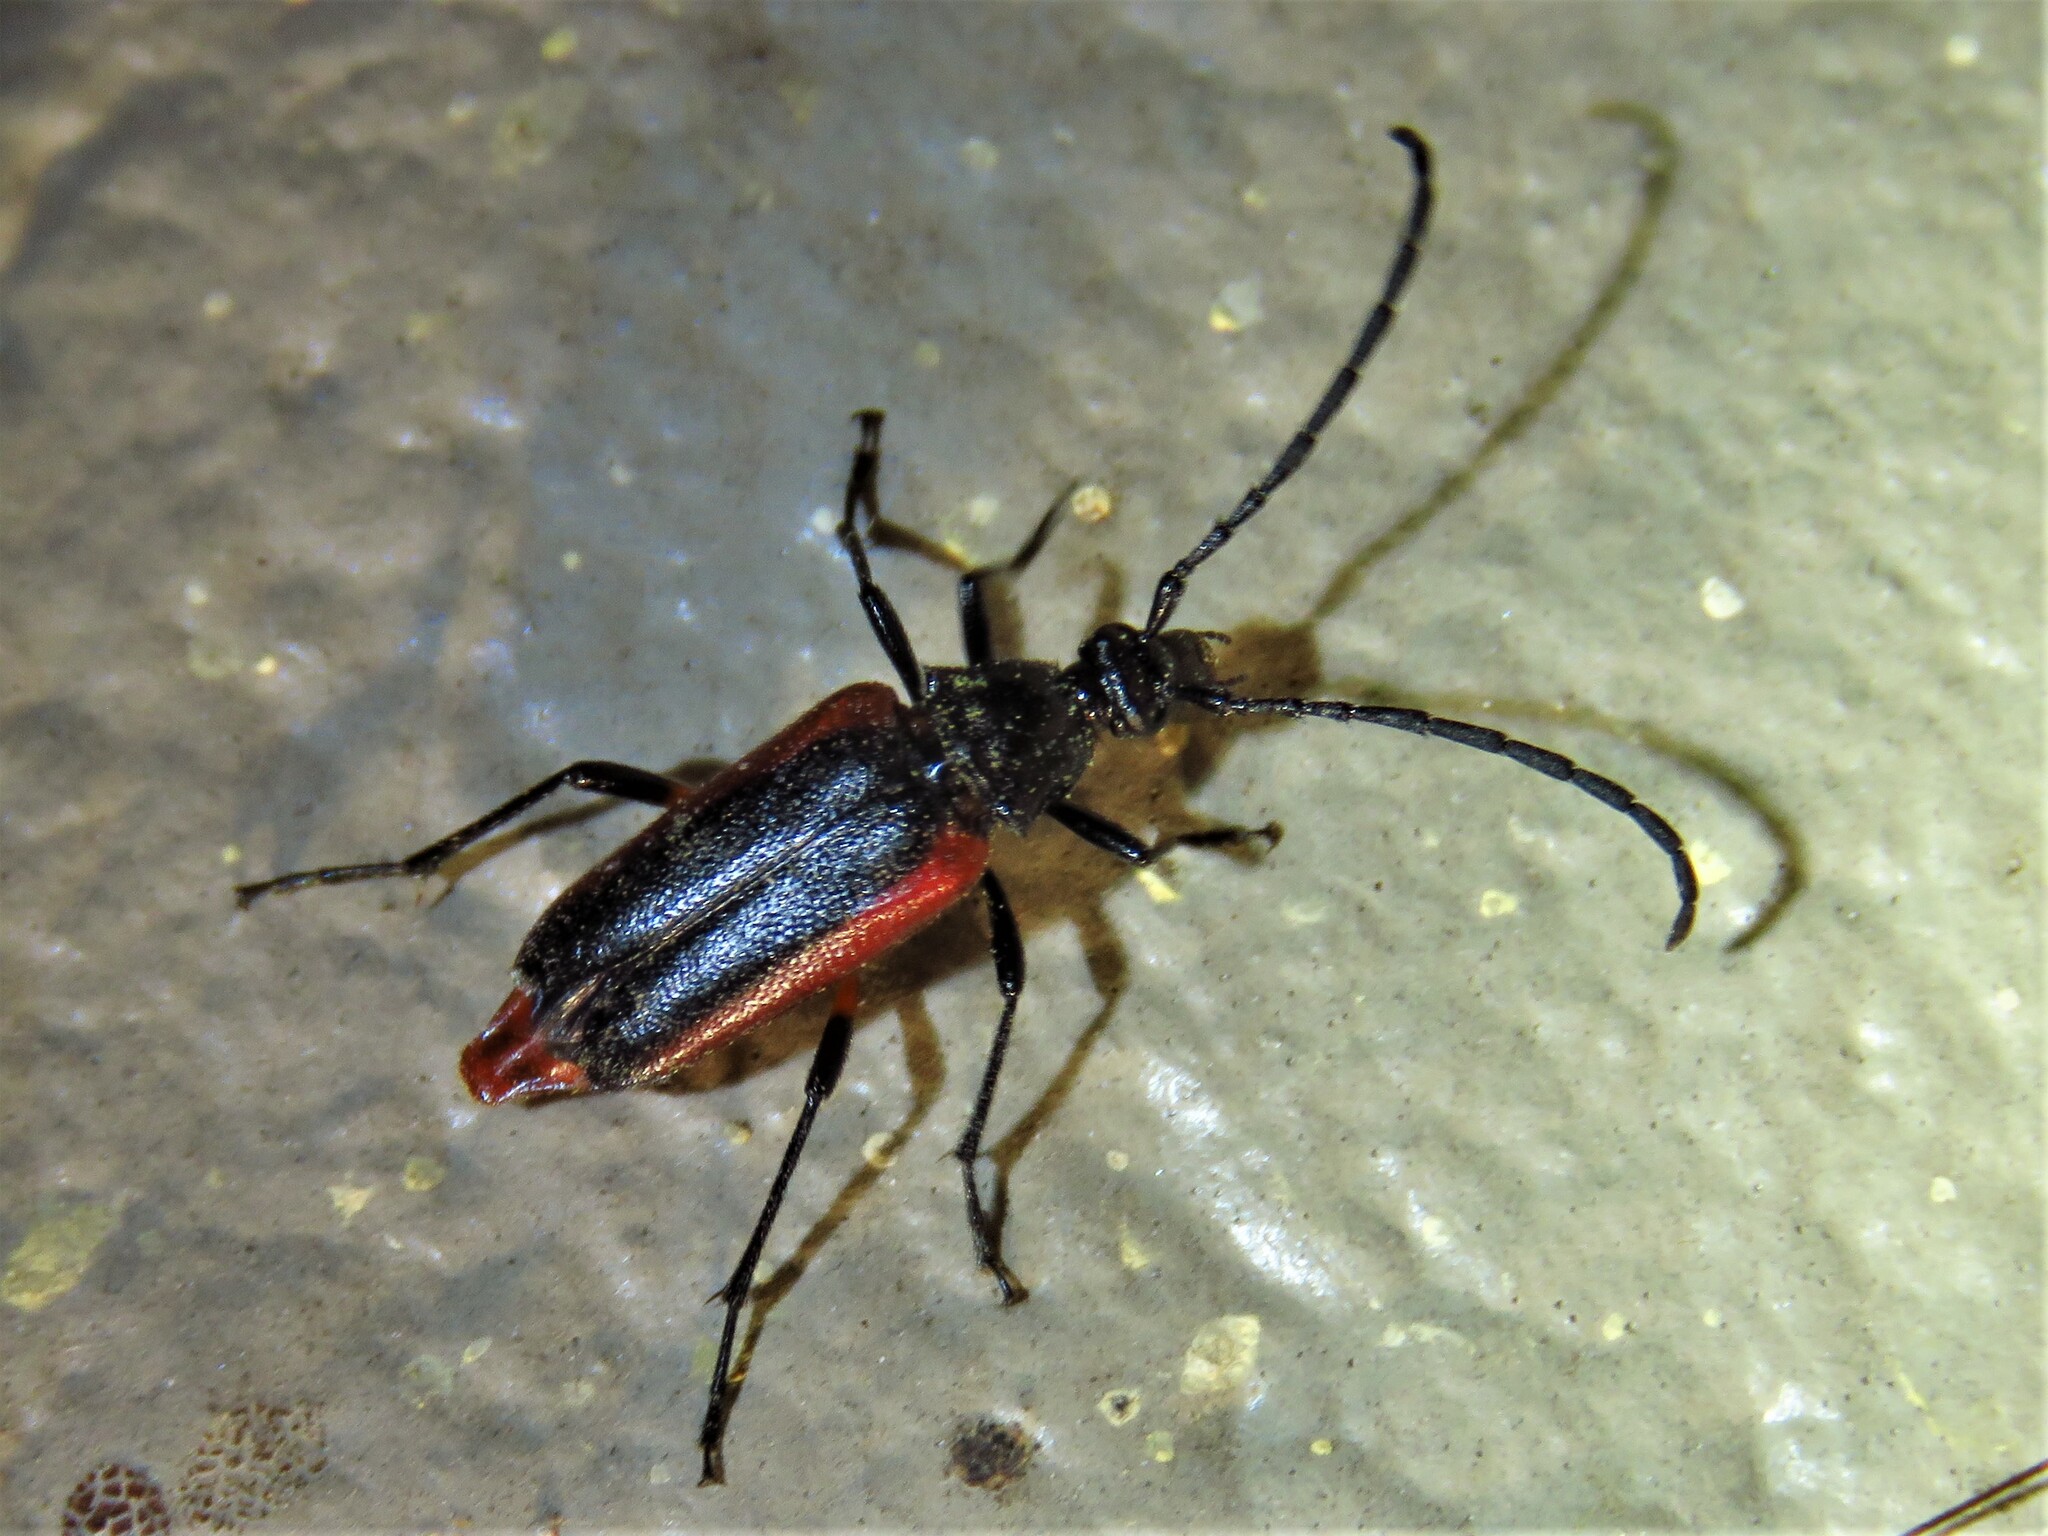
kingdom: Animalia
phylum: Arthropoda
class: Insecta
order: Coleoptera
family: Cerambycidae
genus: Pseudostrangalia
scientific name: Pseudostrangalia cruentata
